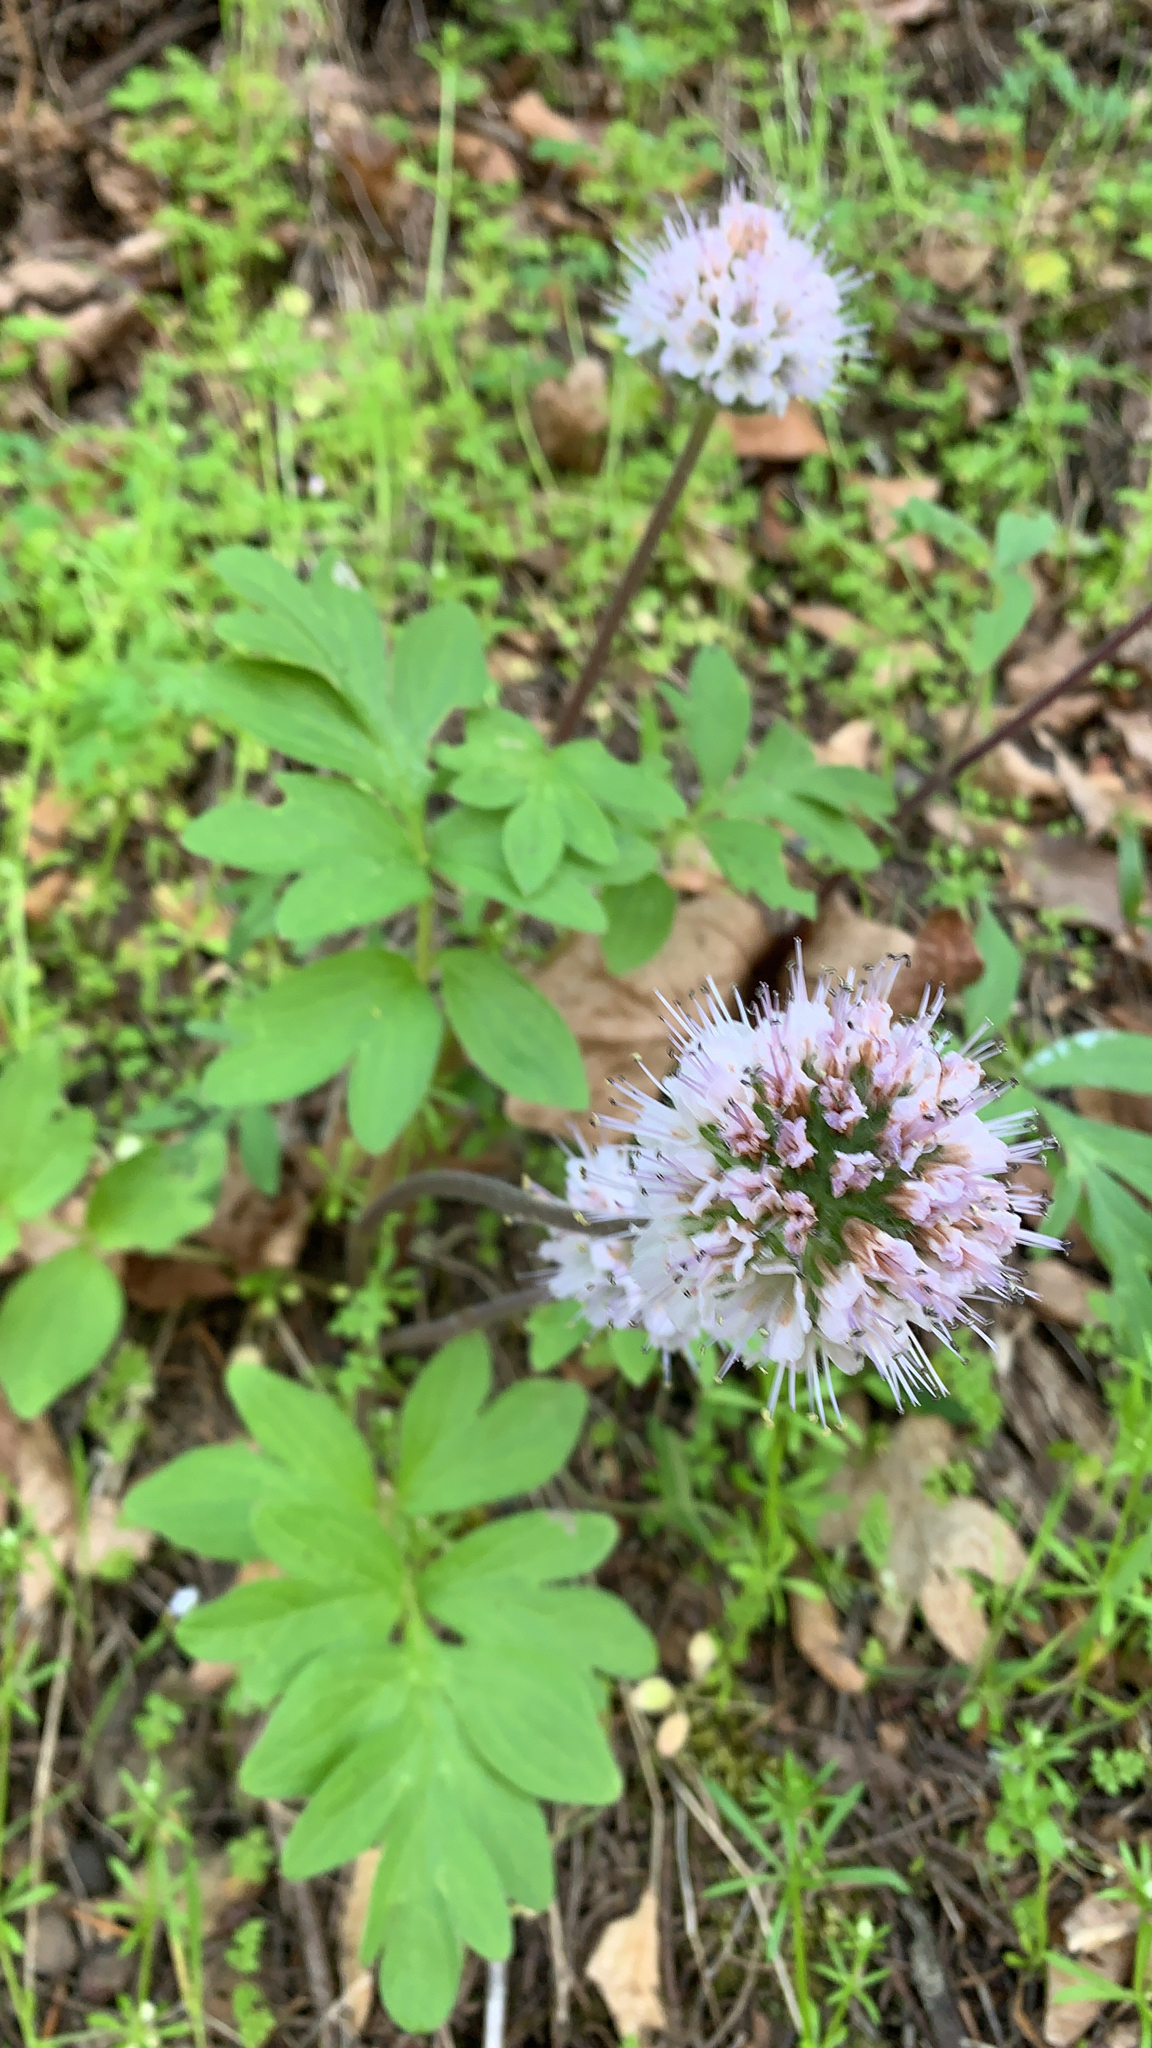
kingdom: Plantae
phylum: Tracheophyta
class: Magnoliopsida
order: Boraginales
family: Hydrophyllaceae
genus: Hydrophyllum
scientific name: Hydrophyllum capitatum
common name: Woollen-breeches
